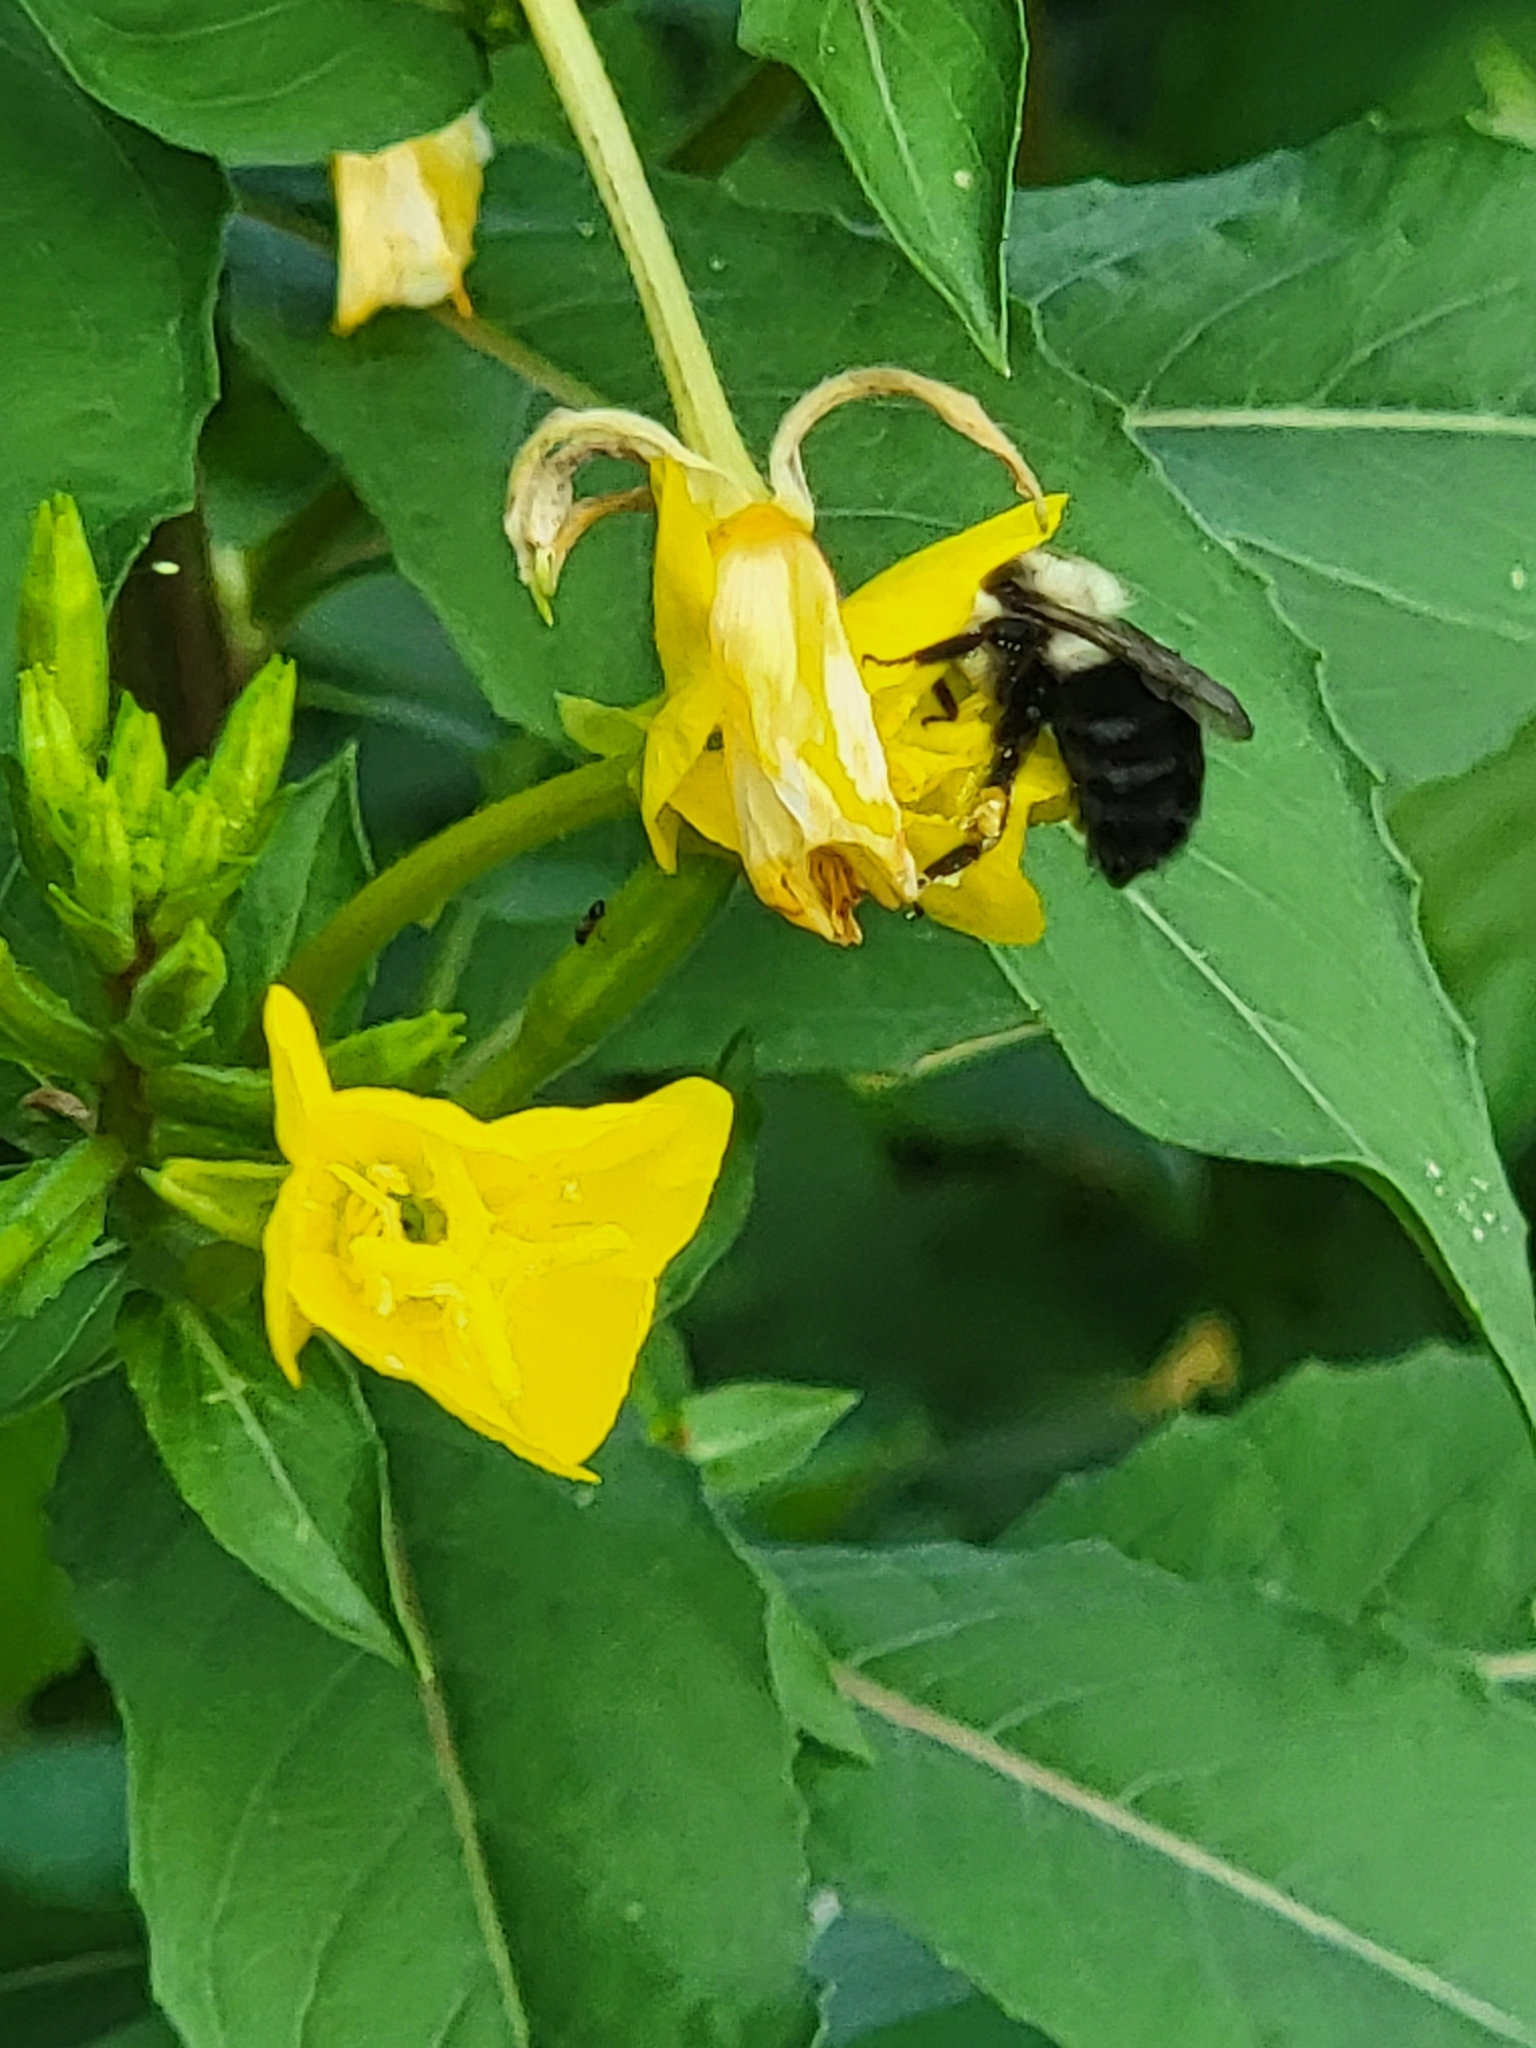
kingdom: Animalia
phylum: Arthropoda
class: Insecta
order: Hymenoptera
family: Apidae
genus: Bombus
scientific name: Bombus impatiens
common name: Common eastern bumble bee
